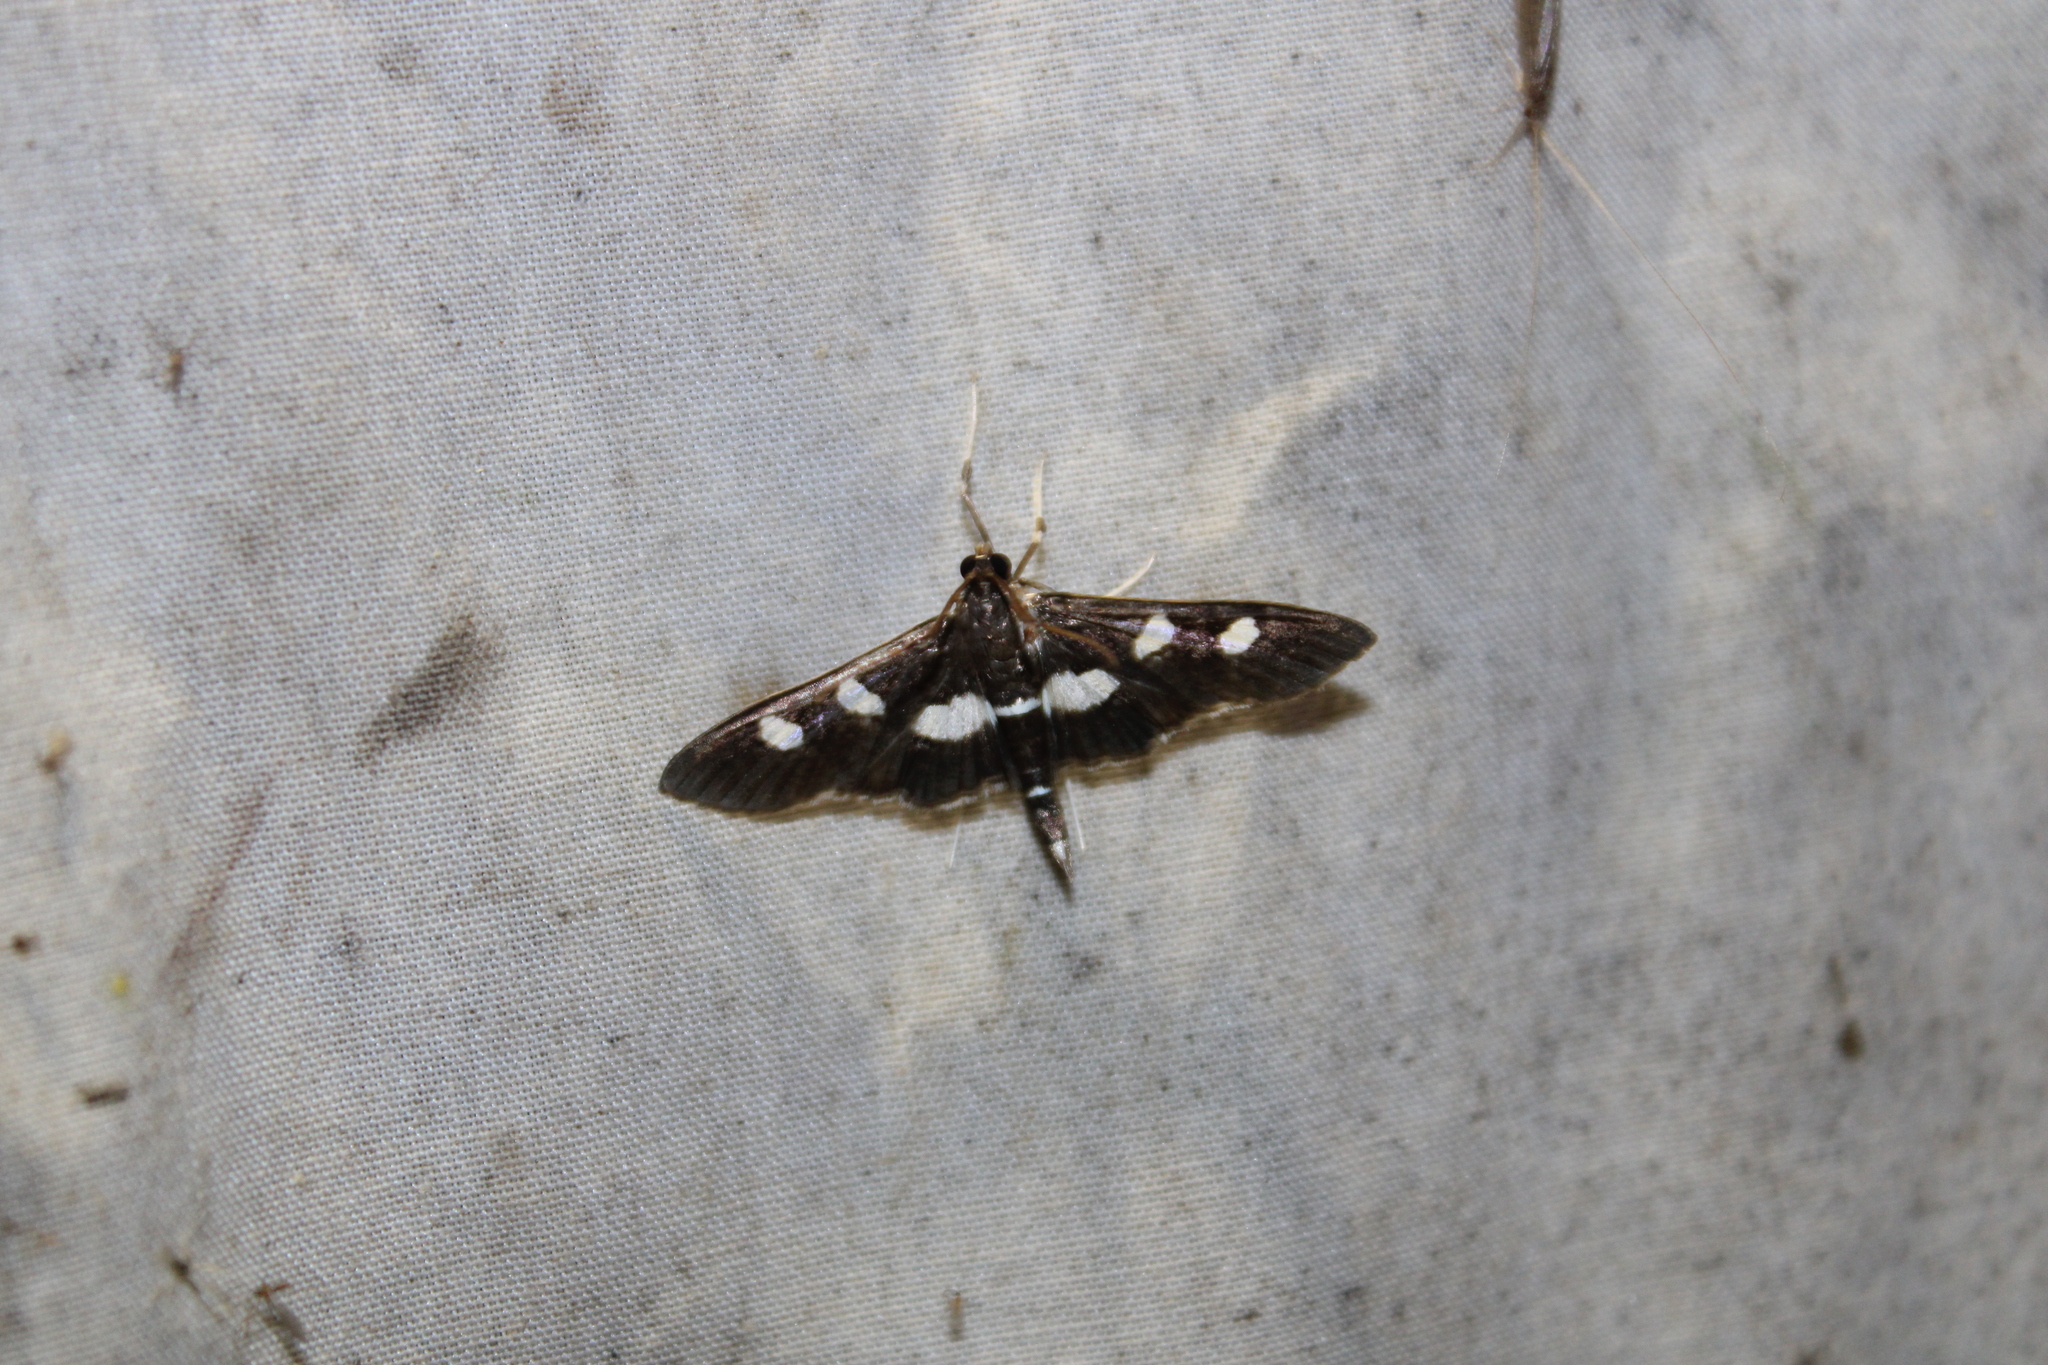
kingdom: Animalia
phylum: Arthropoda
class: Insecta
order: Lepidoptera
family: Crambidae
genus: Desmia
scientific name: Desmia
